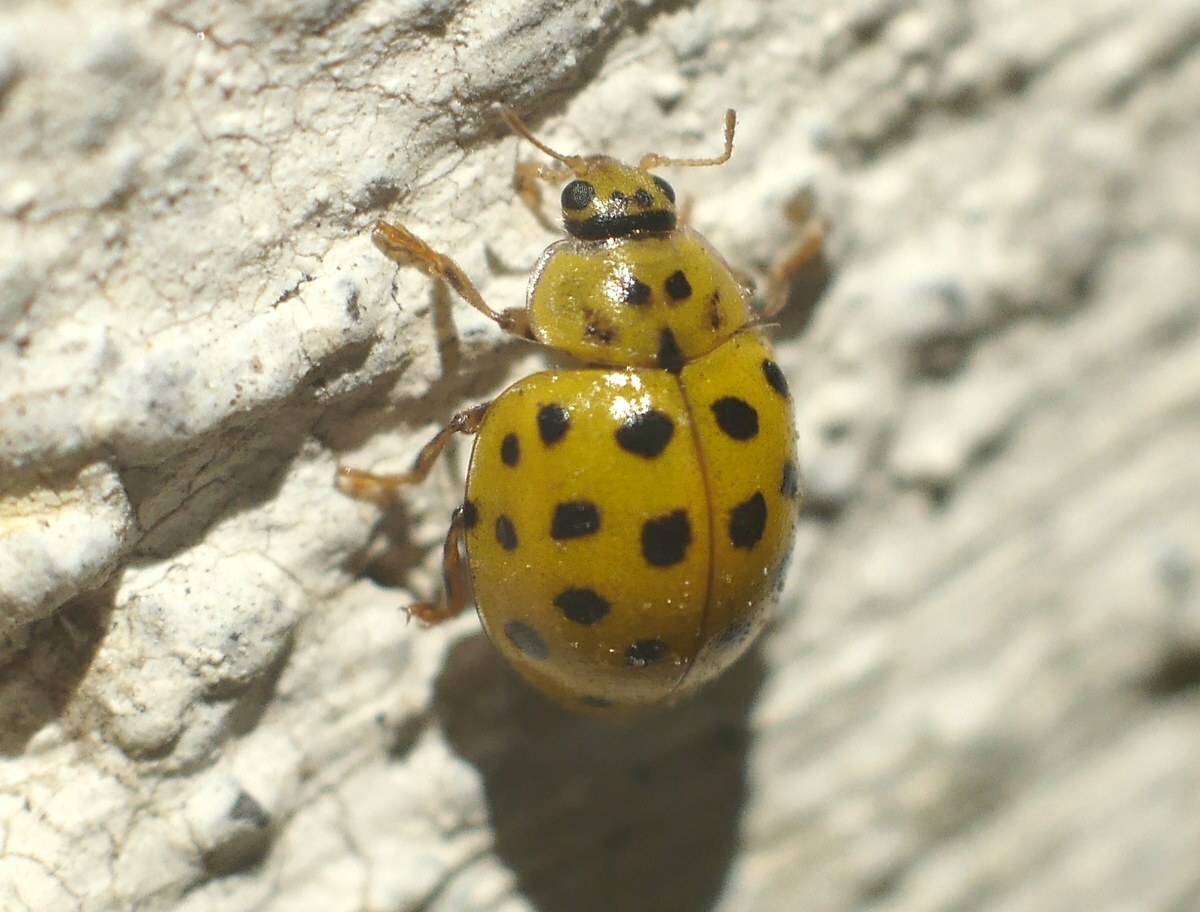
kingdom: Animalia
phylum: Arthropoda
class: Insecta
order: Coleoptera
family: Coccinellidae
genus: Psyllobora
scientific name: Psyllobora vigintiduopunctata
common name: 22-spot ladybird
